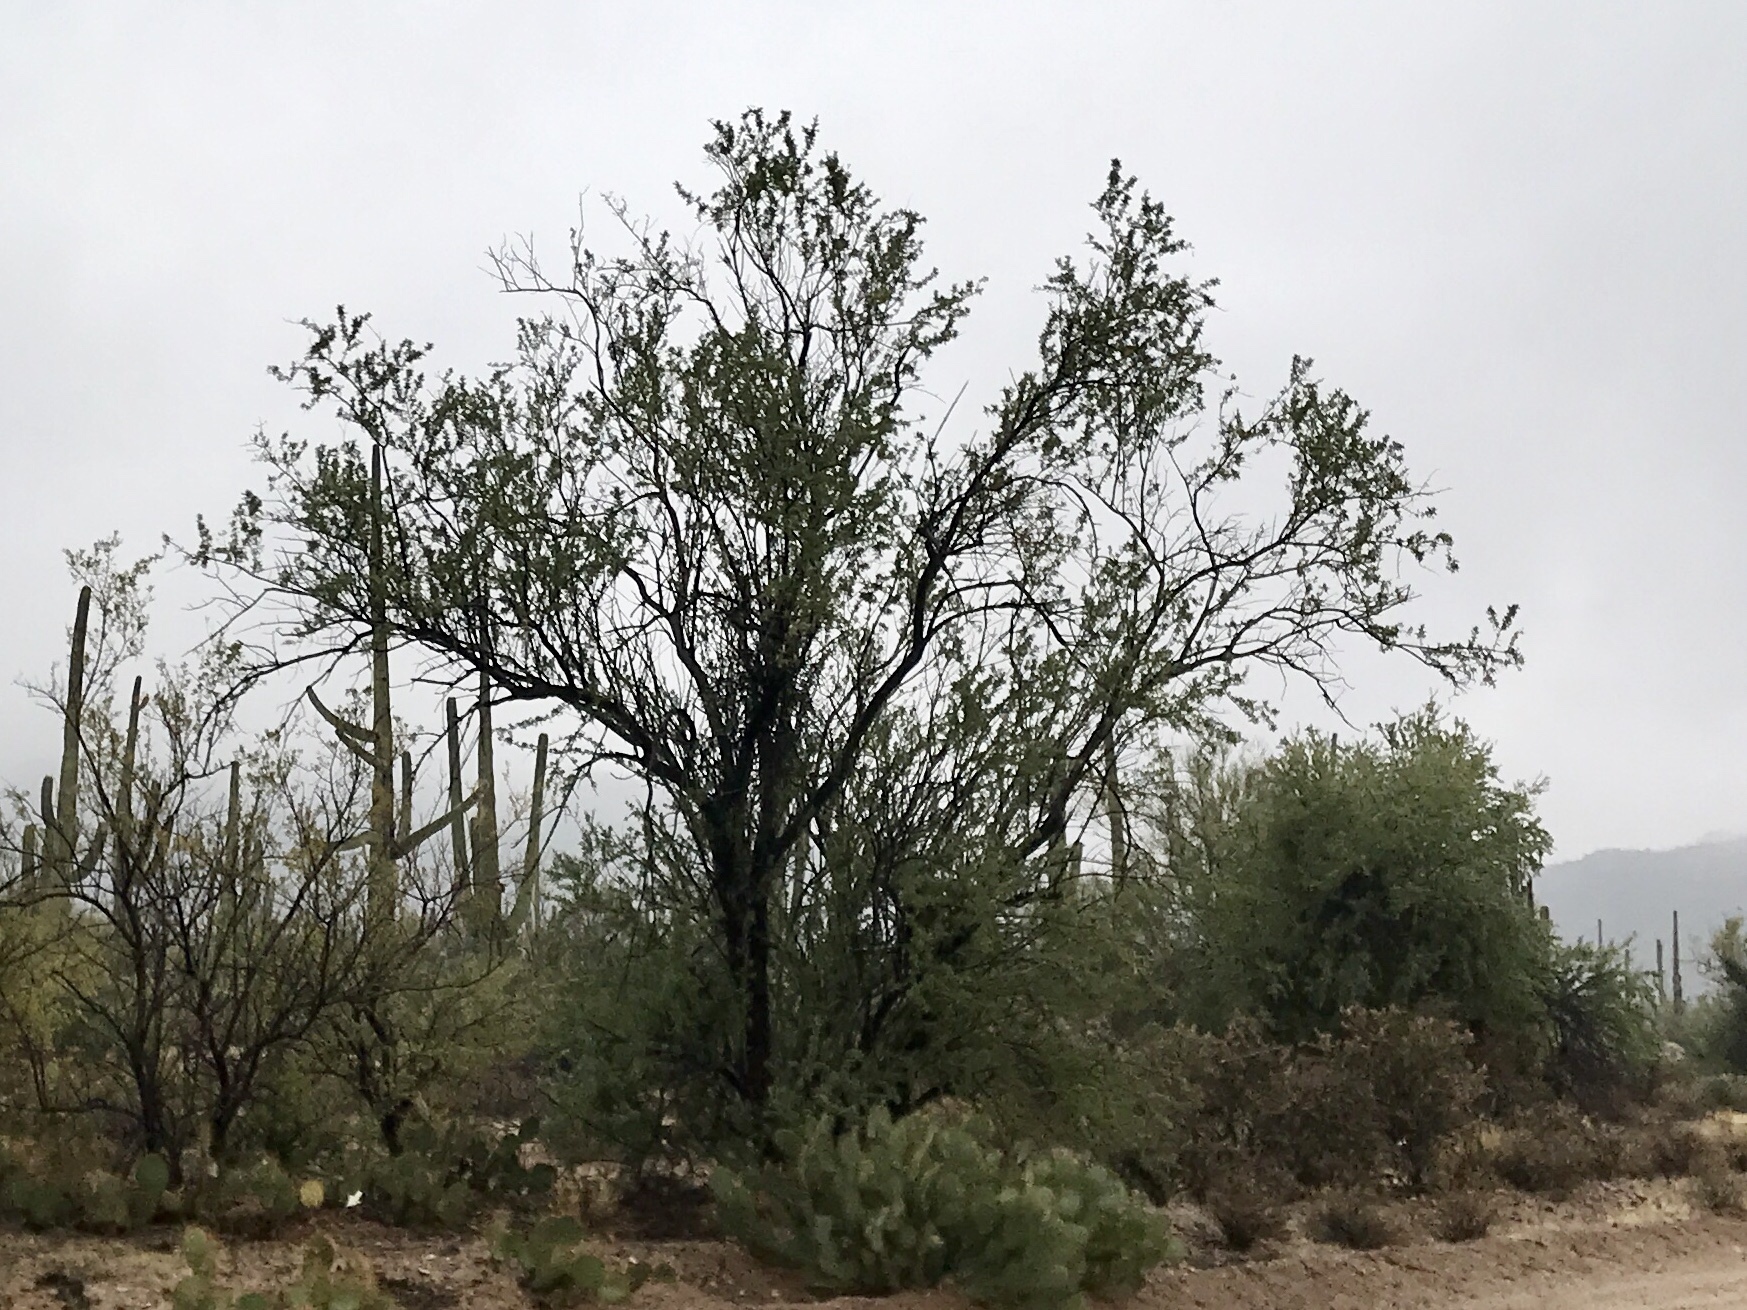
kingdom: Plantae
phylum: Tracheophyta
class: Magnoliopsida
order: Fabales
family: Fabaceae
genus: Olneya
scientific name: Olneya tesota
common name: Desert ironwood
